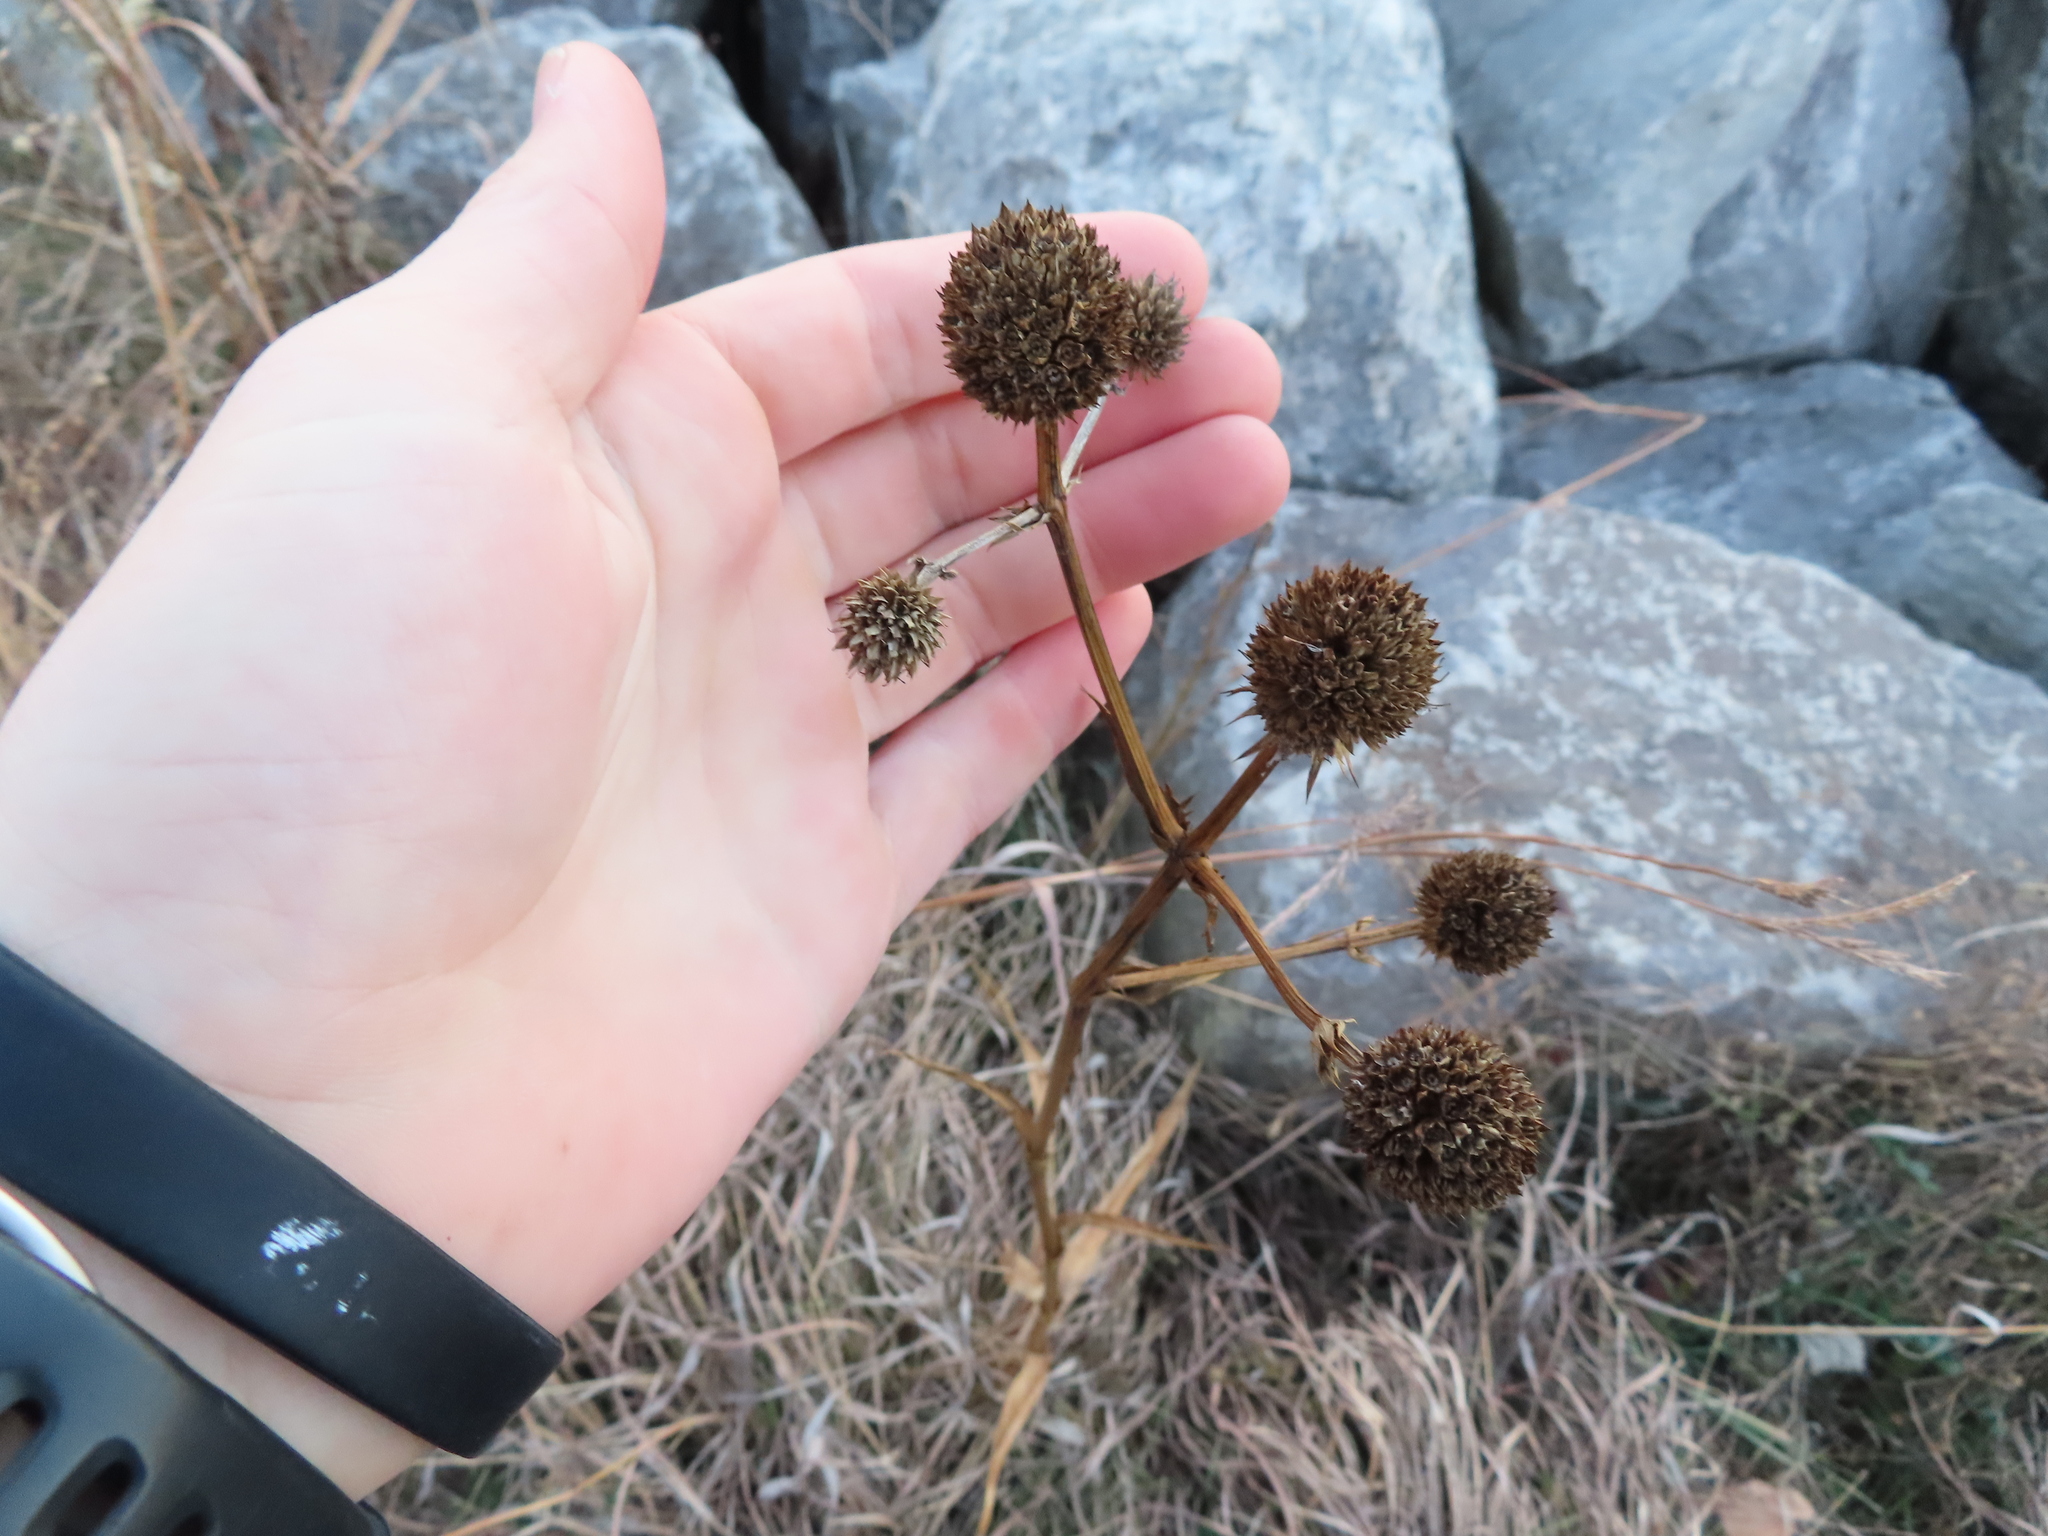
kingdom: Plantae
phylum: Tracheophyta
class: Magnoliopsida
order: Apiales
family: Apiaceae
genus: Eryngium
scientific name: Eryngium yuccifolium
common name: Button eryngo
